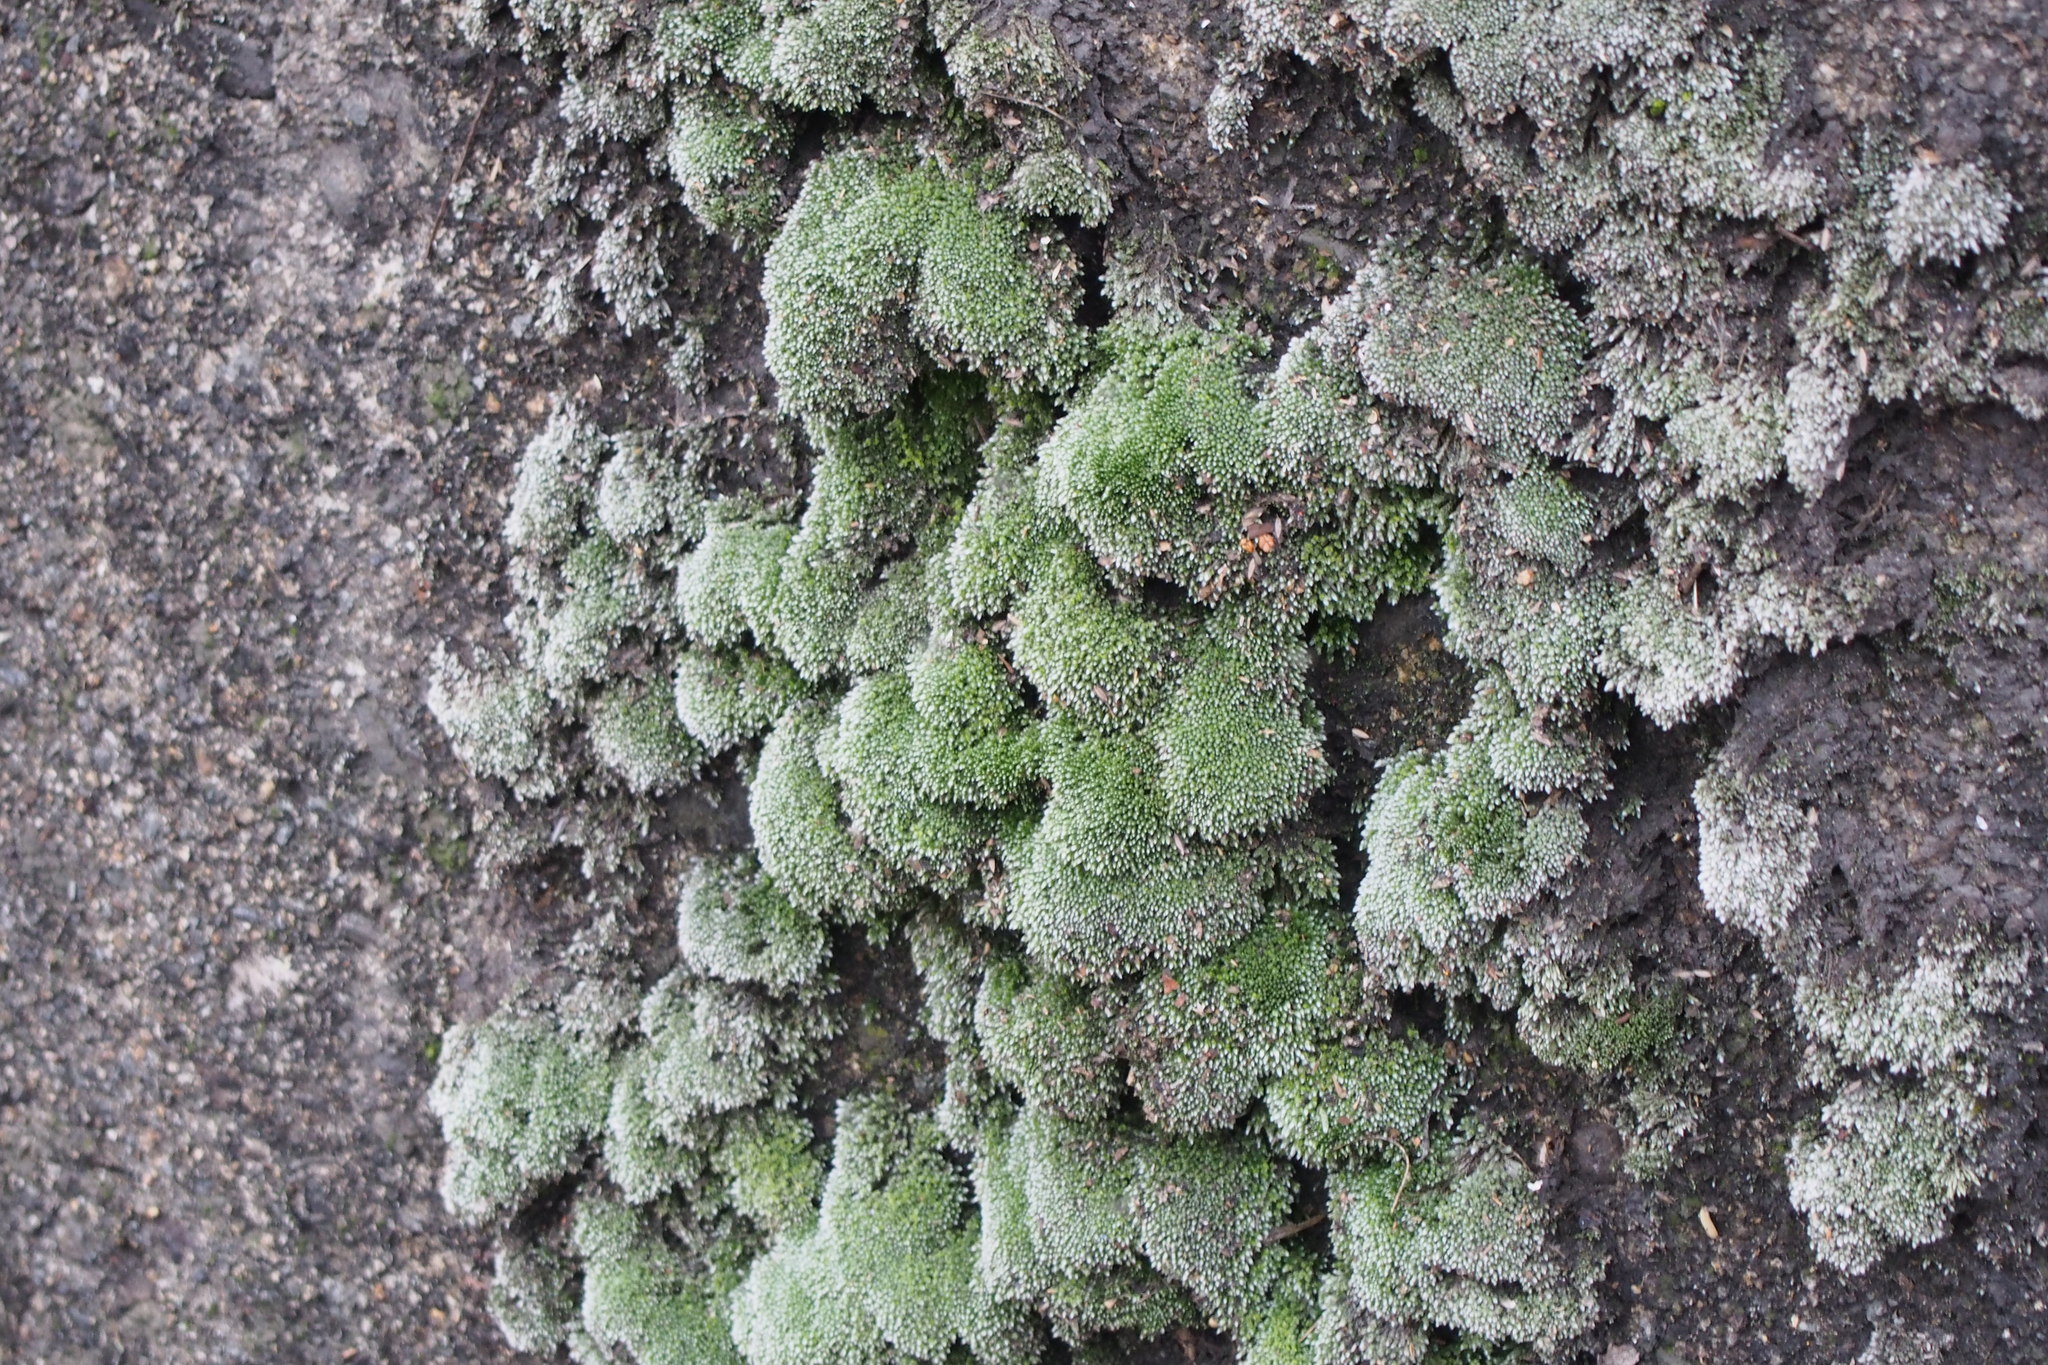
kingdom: Plantae
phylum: Bryophyta
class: Bryopsida
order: Bryales
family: Bryaceae
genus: Bryum
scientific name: Bryum argenteum
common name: Silver-moss
